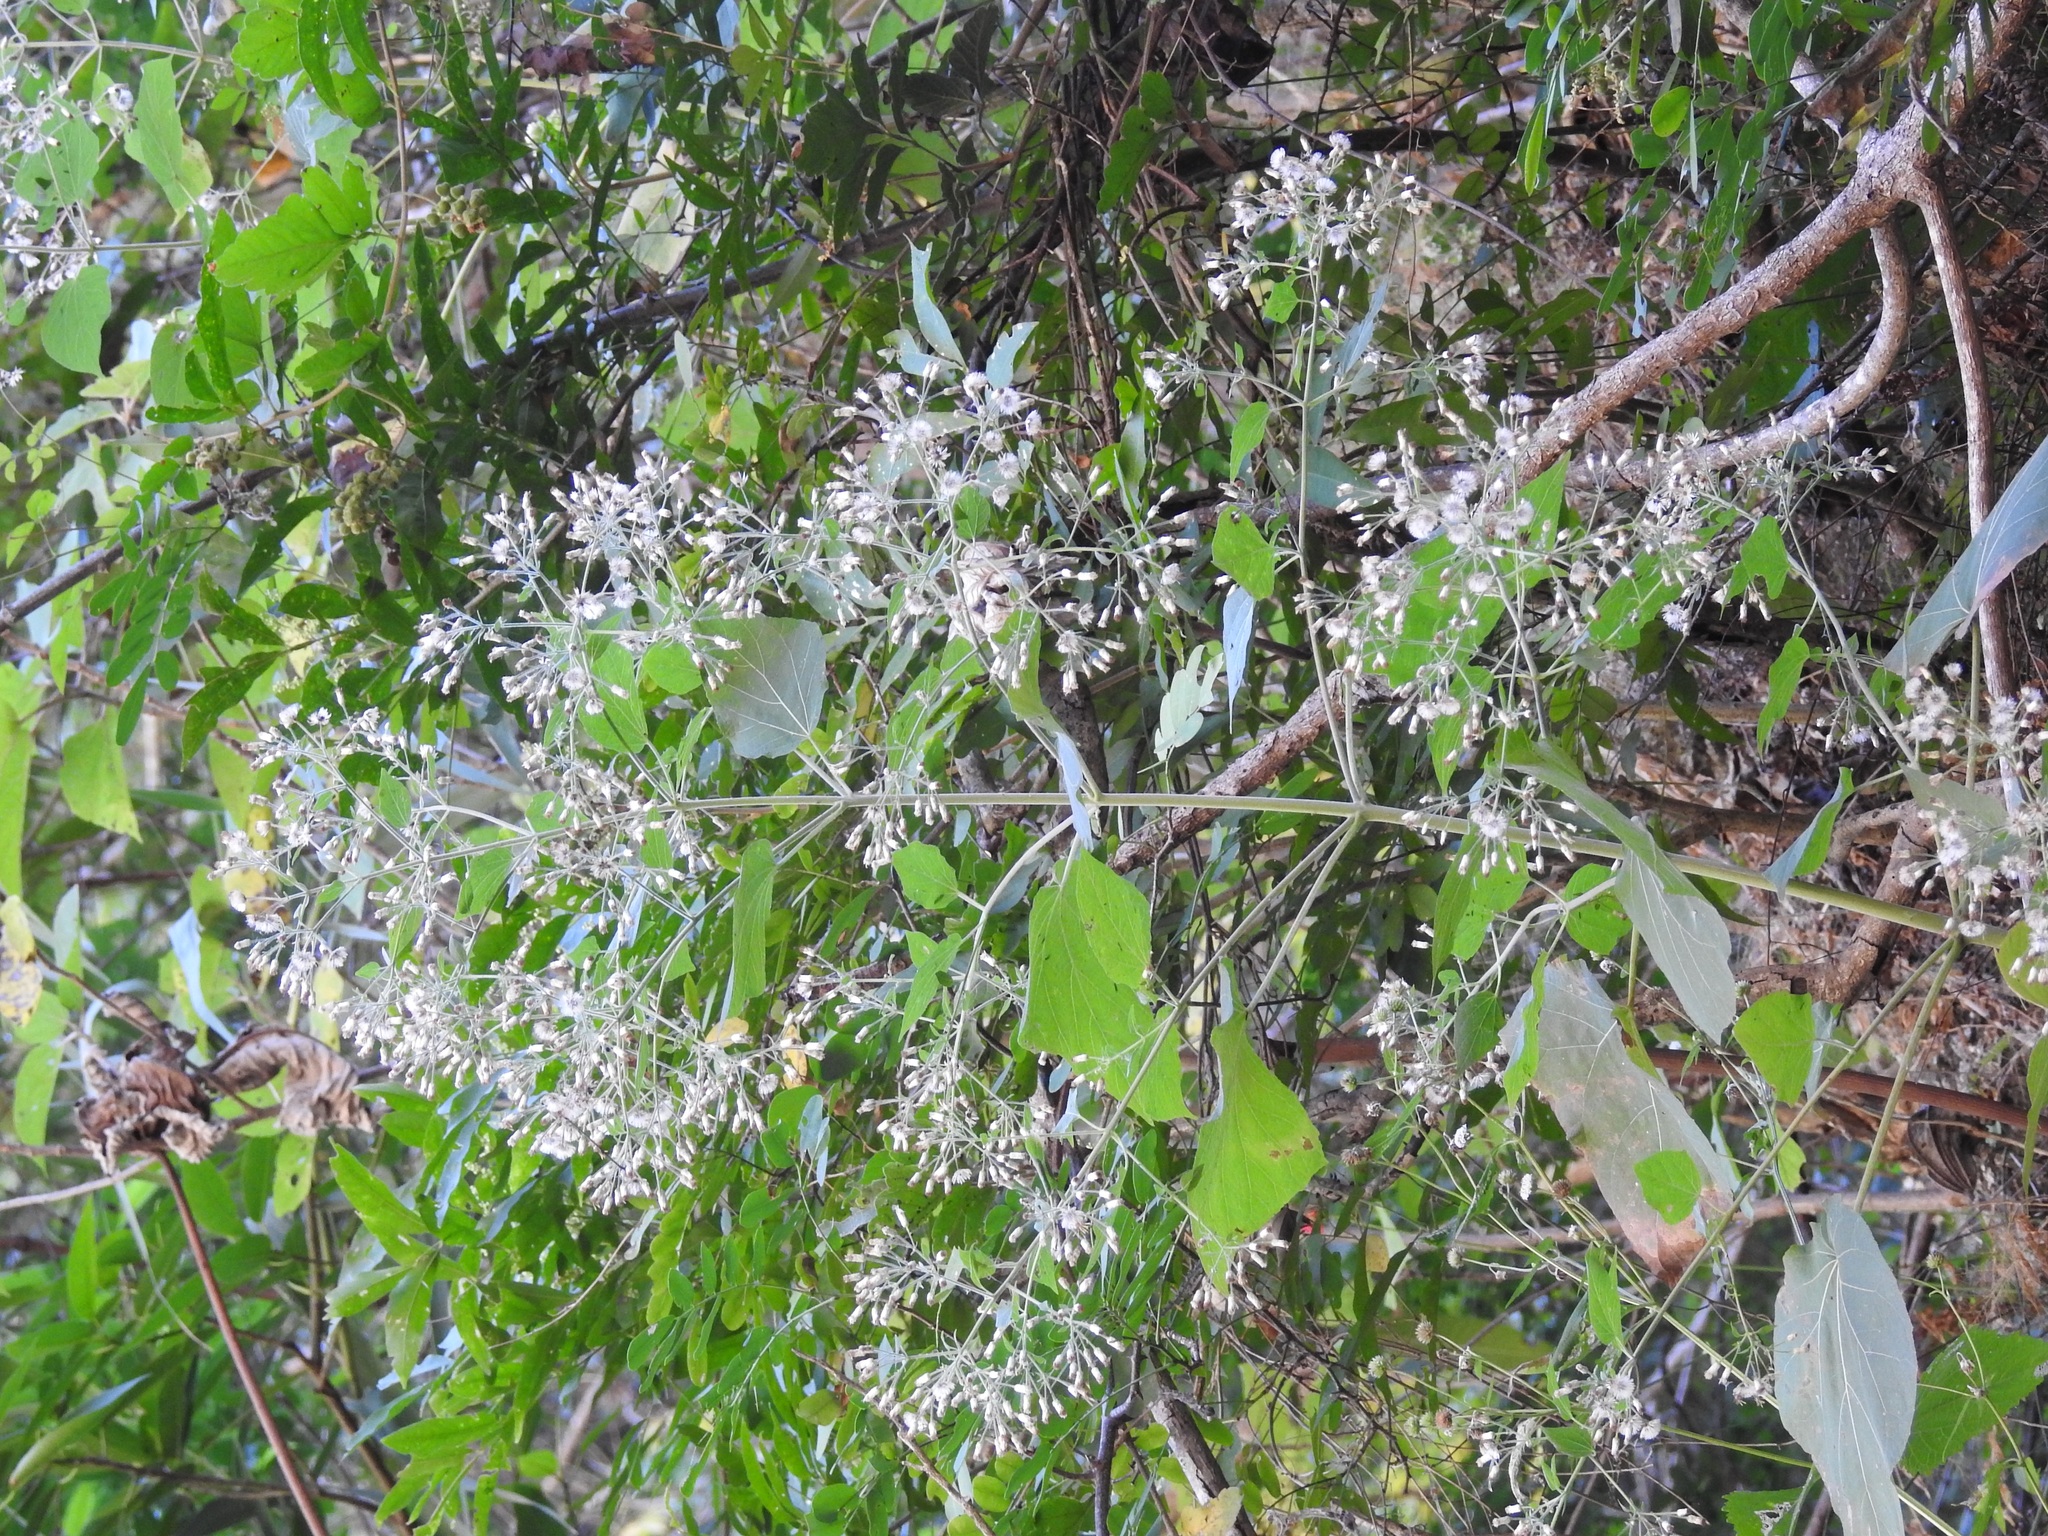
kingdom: Plantae
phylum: Tracheophyta
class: Magnoliopsida
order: Asterales
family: Asteraceae
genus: Peteravenia
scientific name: Peteravenia schultzii
